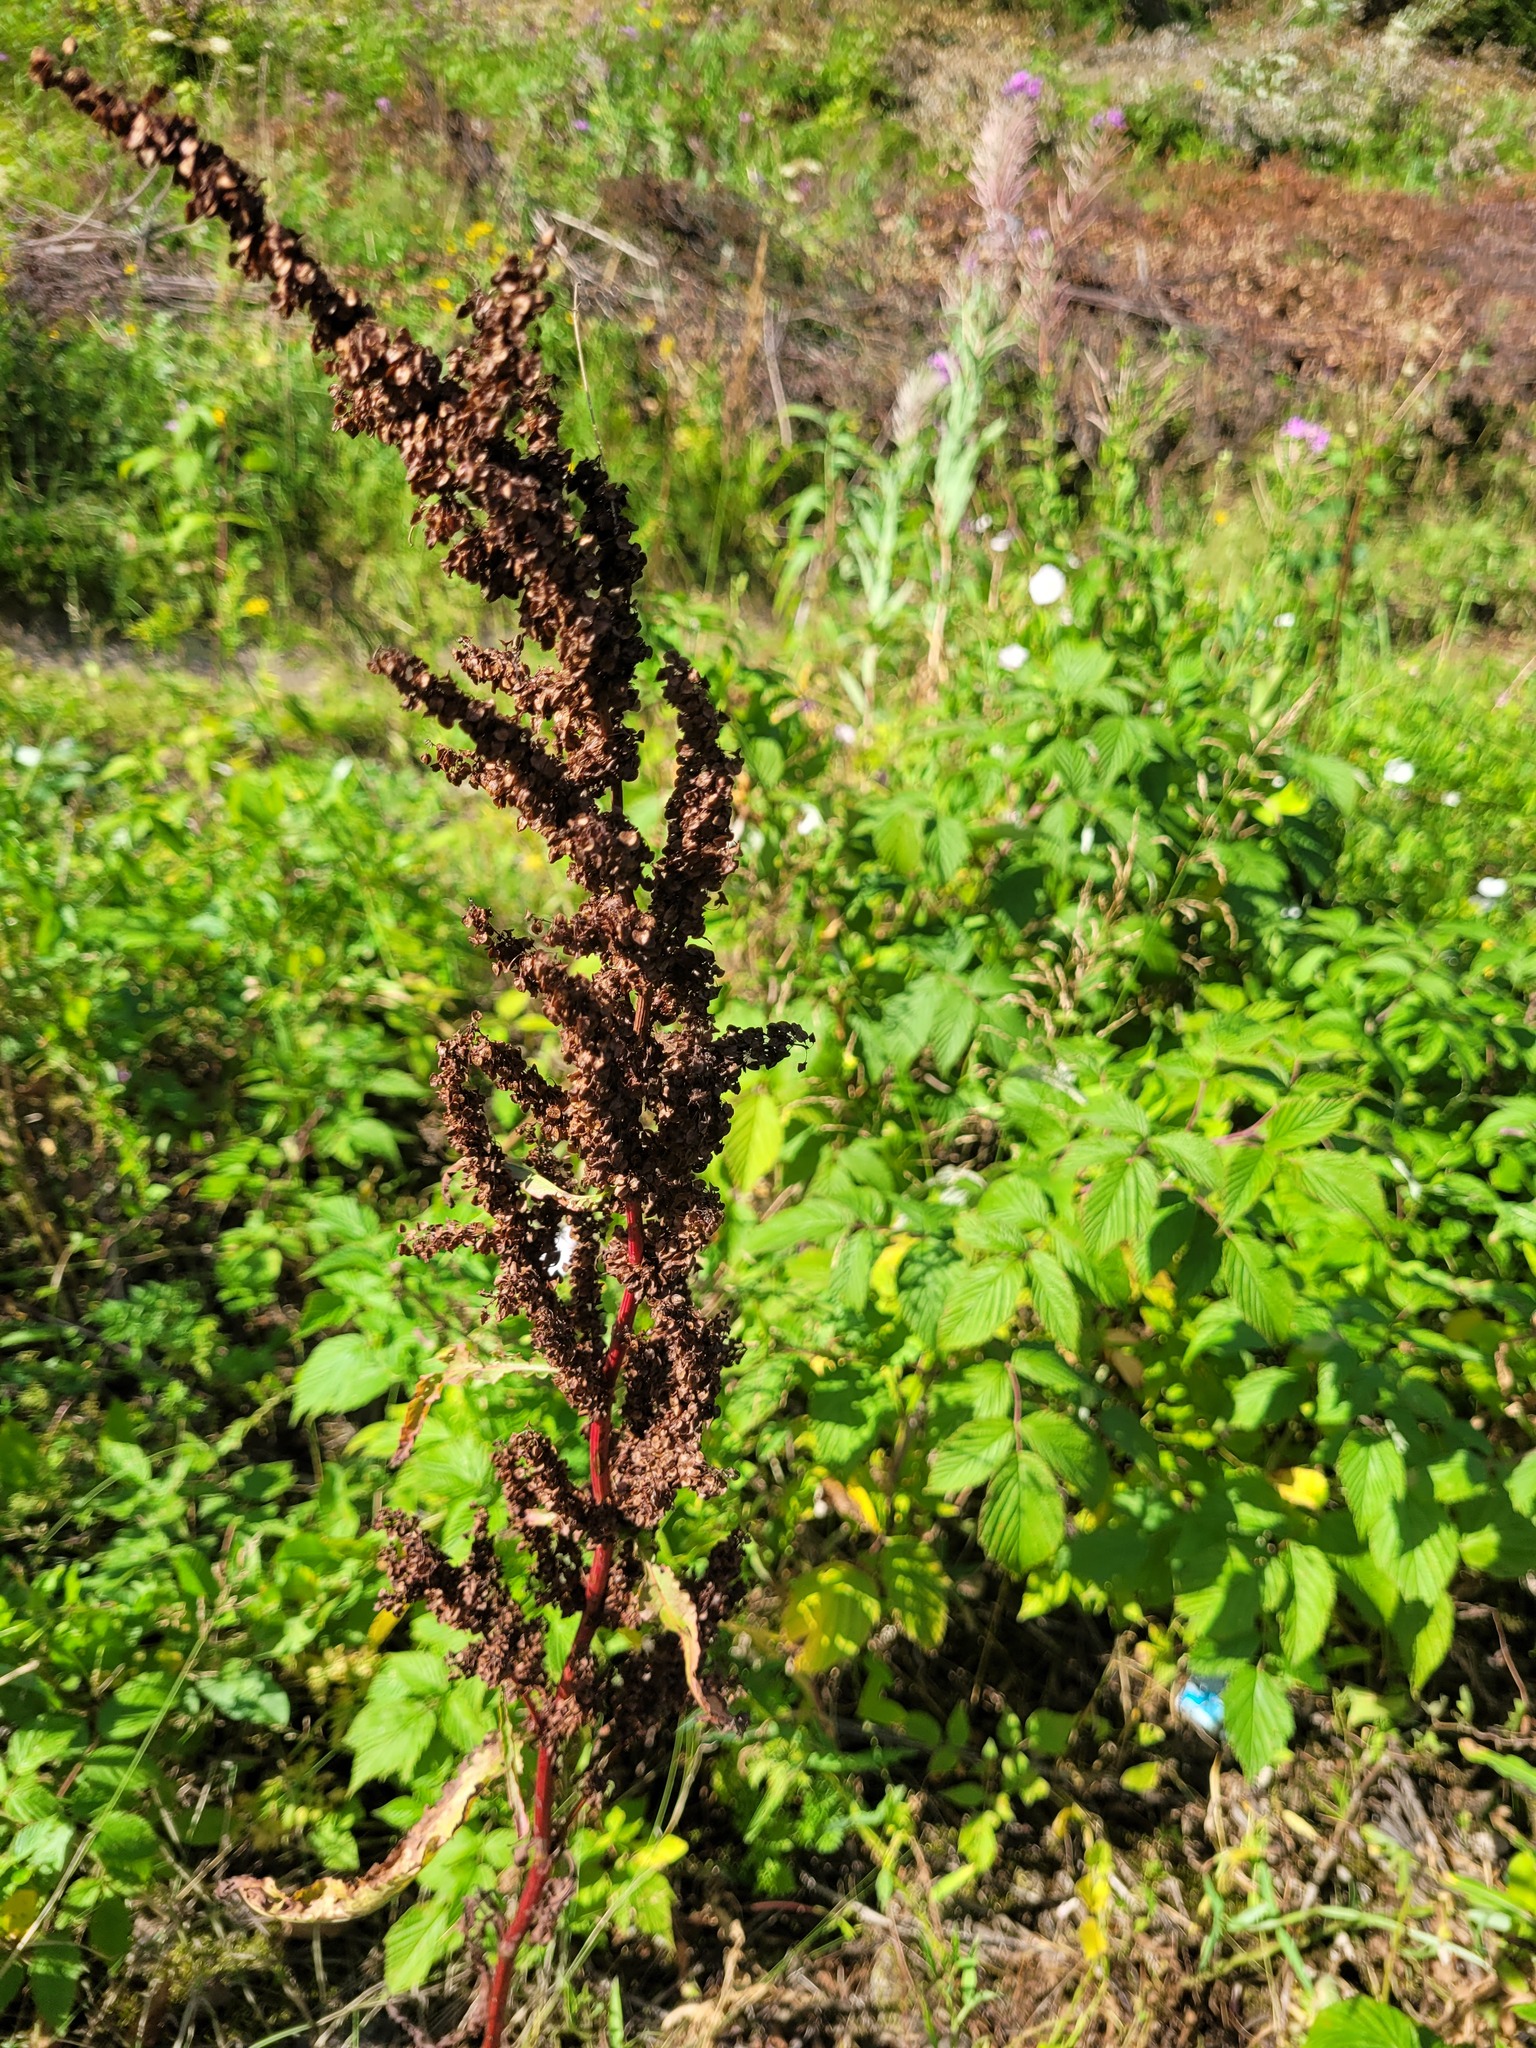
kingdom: Plantae
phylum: Tracheophyta
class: Magnoliopsida
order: Caryophyllales
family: Polygonaceae
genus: Rumex
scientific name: Rumex pseudonatronatus
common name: Field dock
